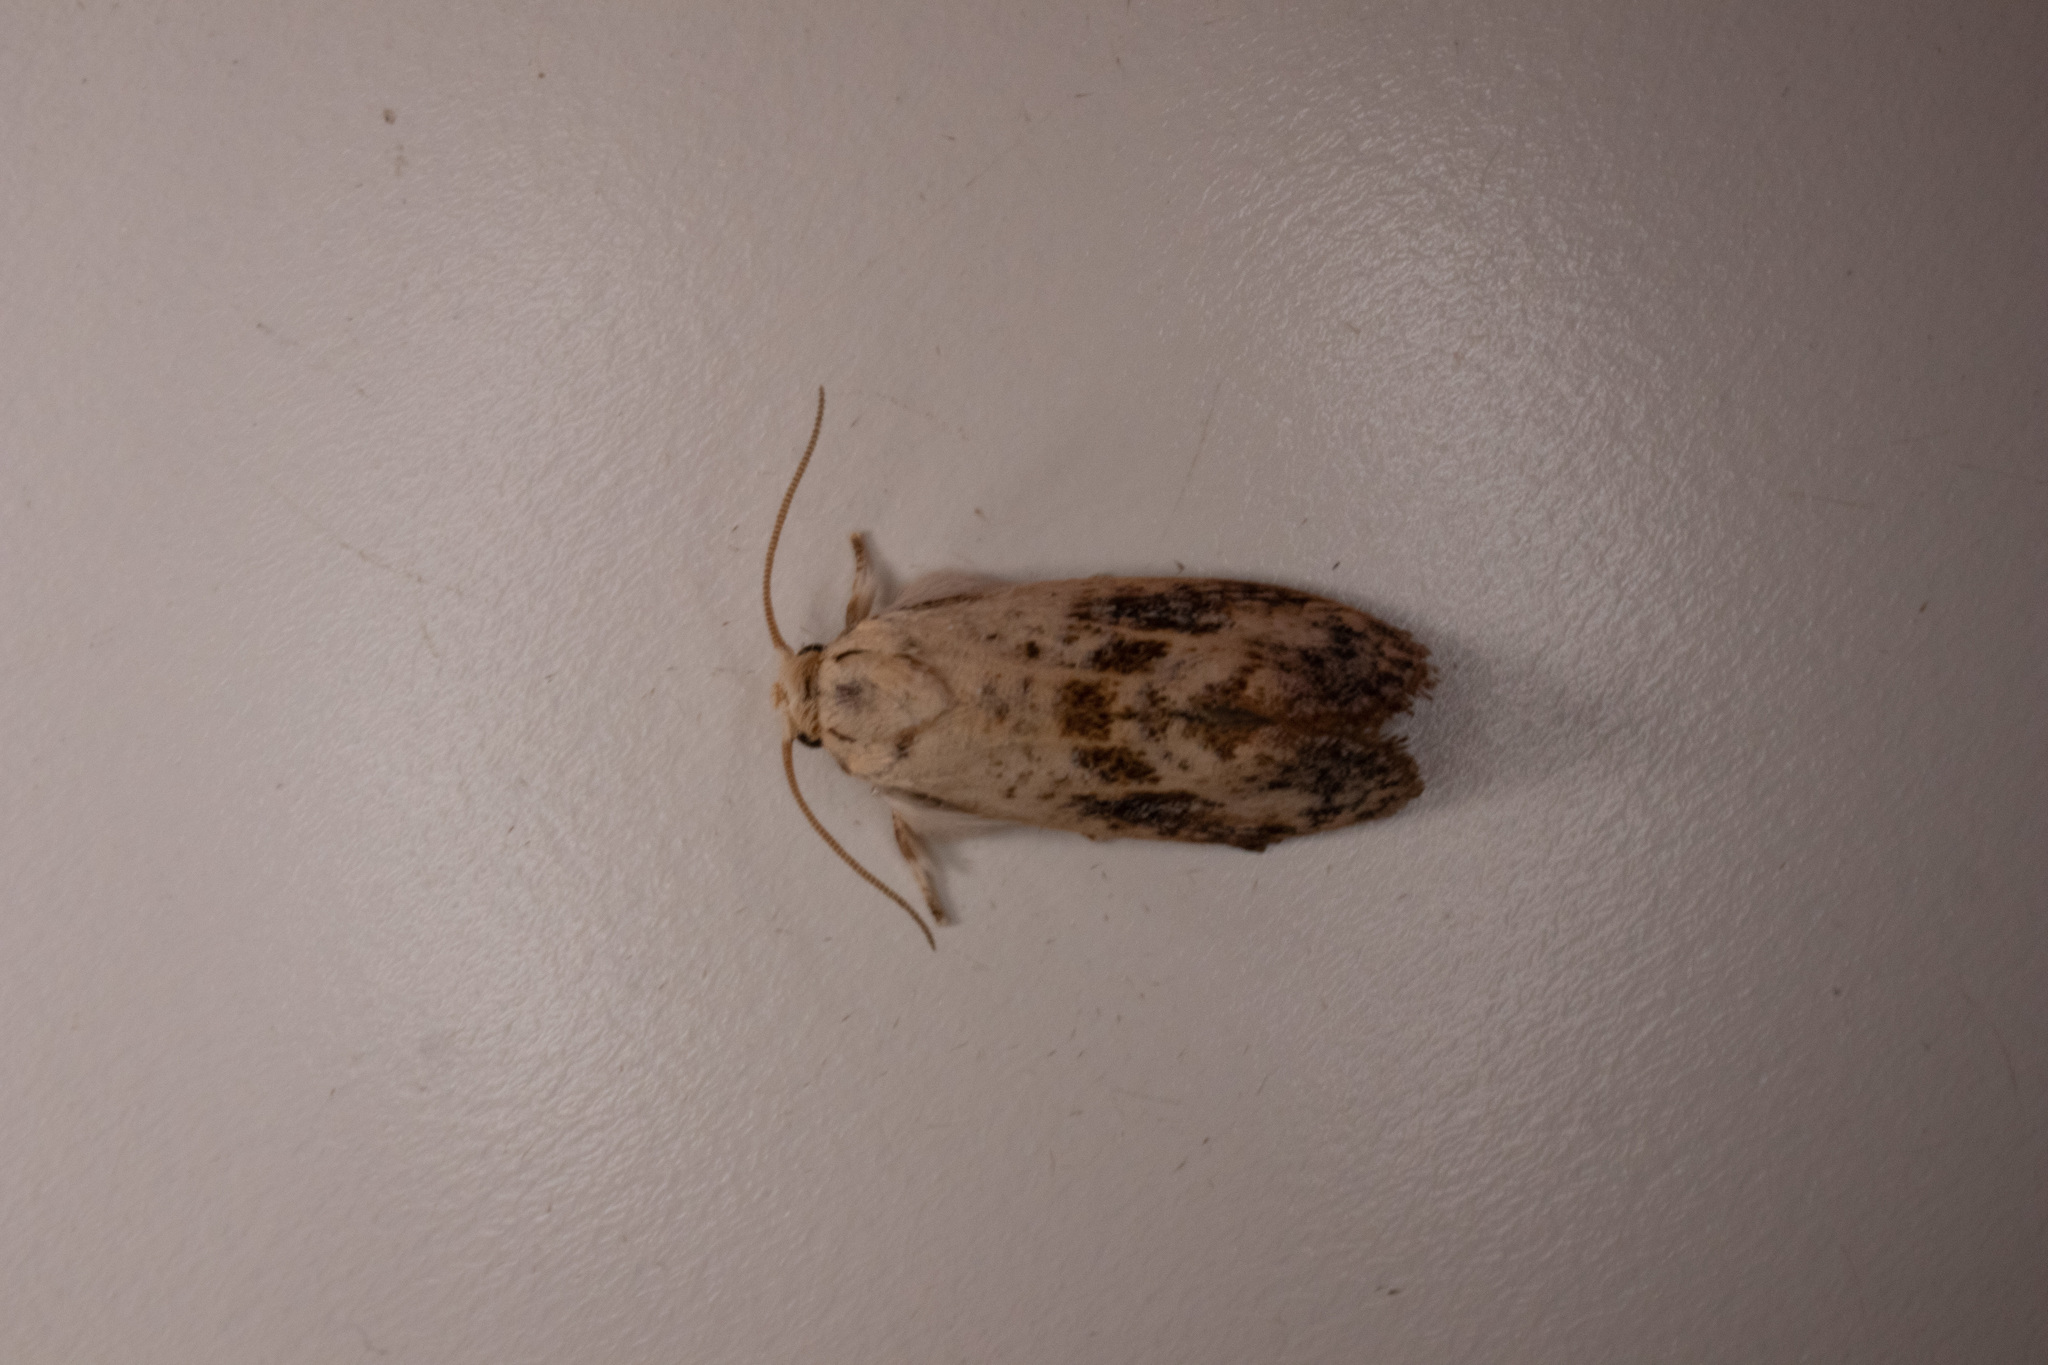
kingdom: Animalia
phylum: Arthropoda
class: Insecta
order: Lepidoptera
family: Tineidae
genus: Acrolophus
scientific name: Acrolophus mycetophagus
